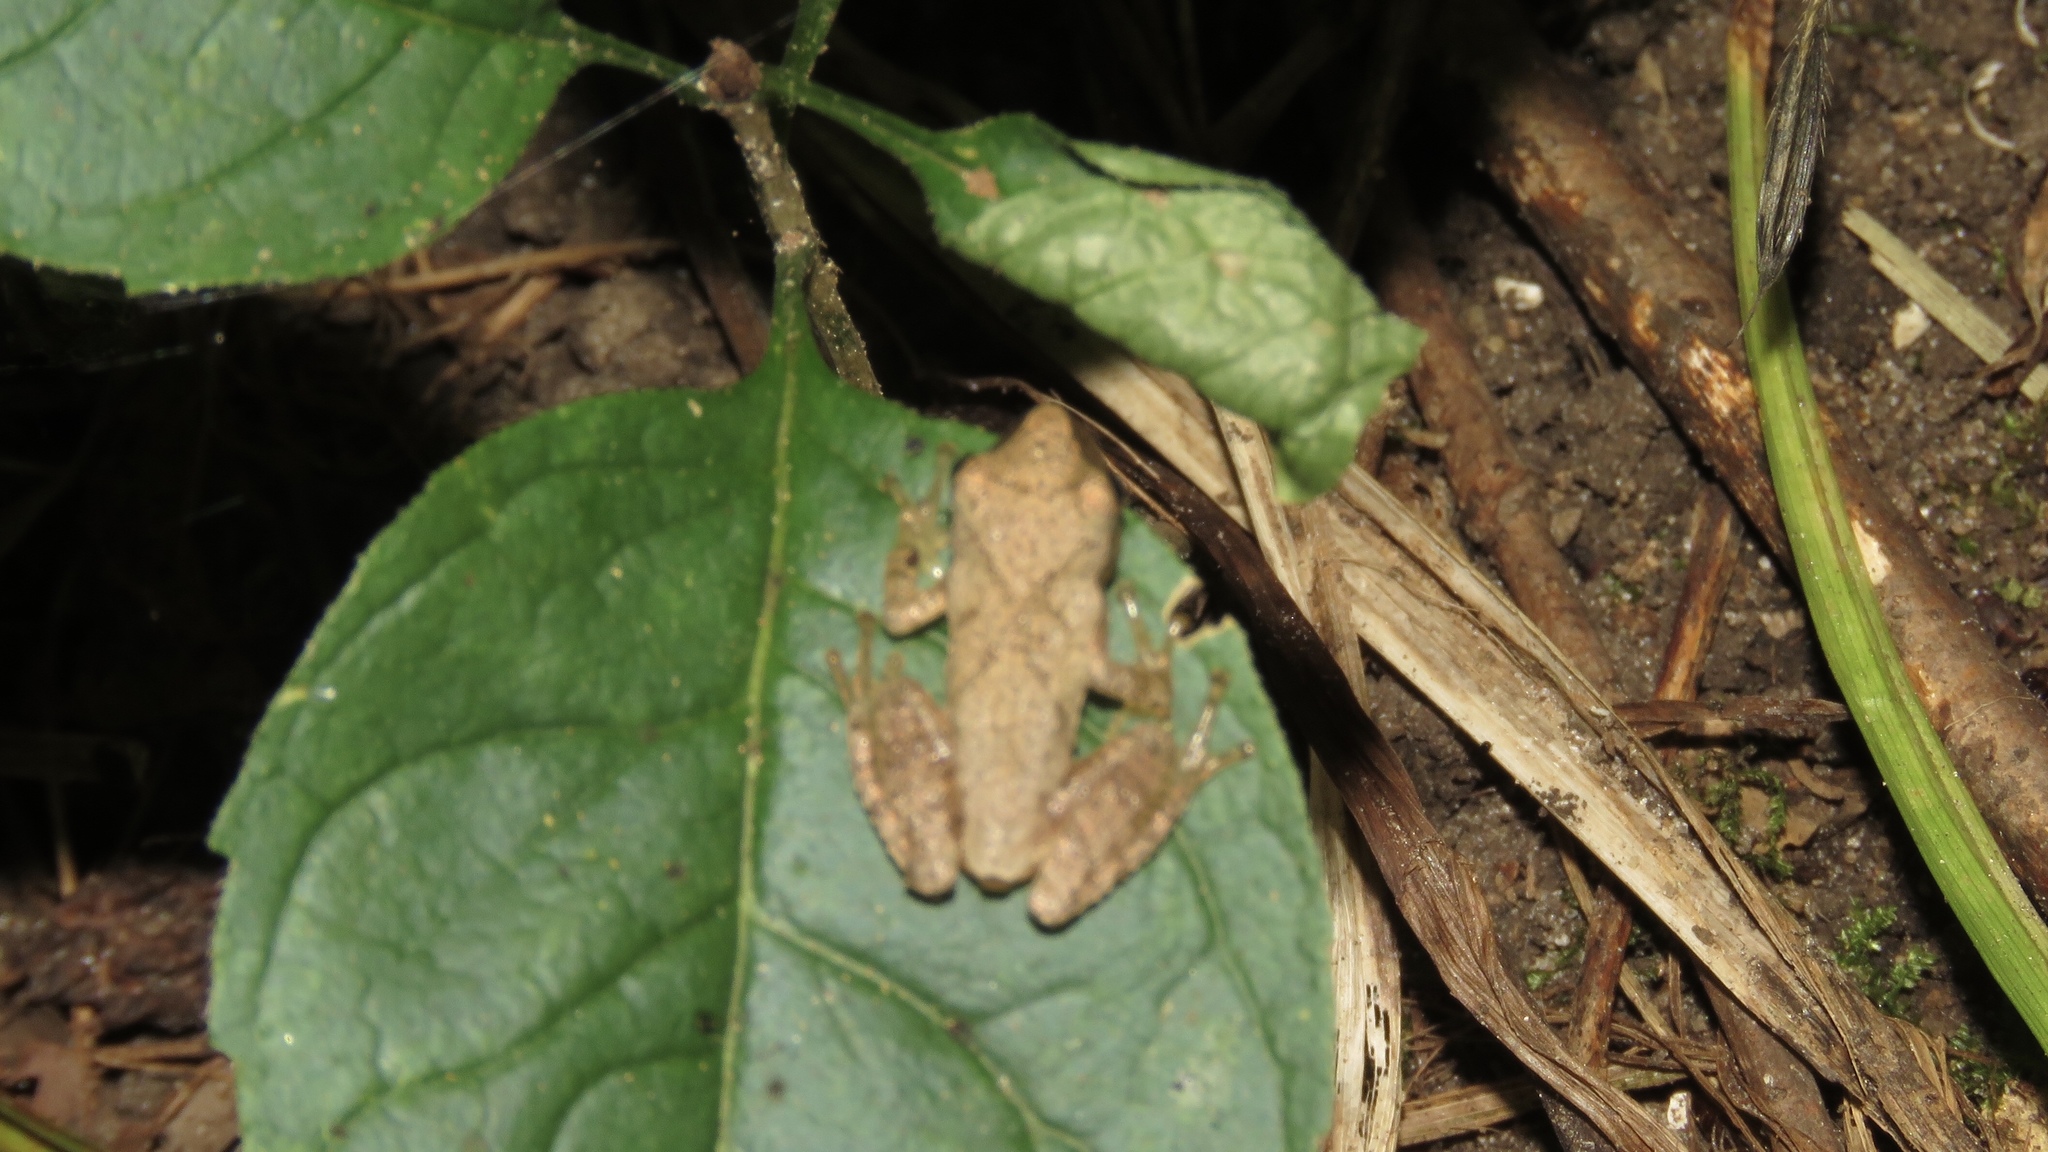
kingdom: Animalia
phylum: Chordata
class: Amphibia
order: Anura
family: Hylidae
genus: Pseudacris
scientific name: Pseudacris crucifer
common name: Spring peeper
